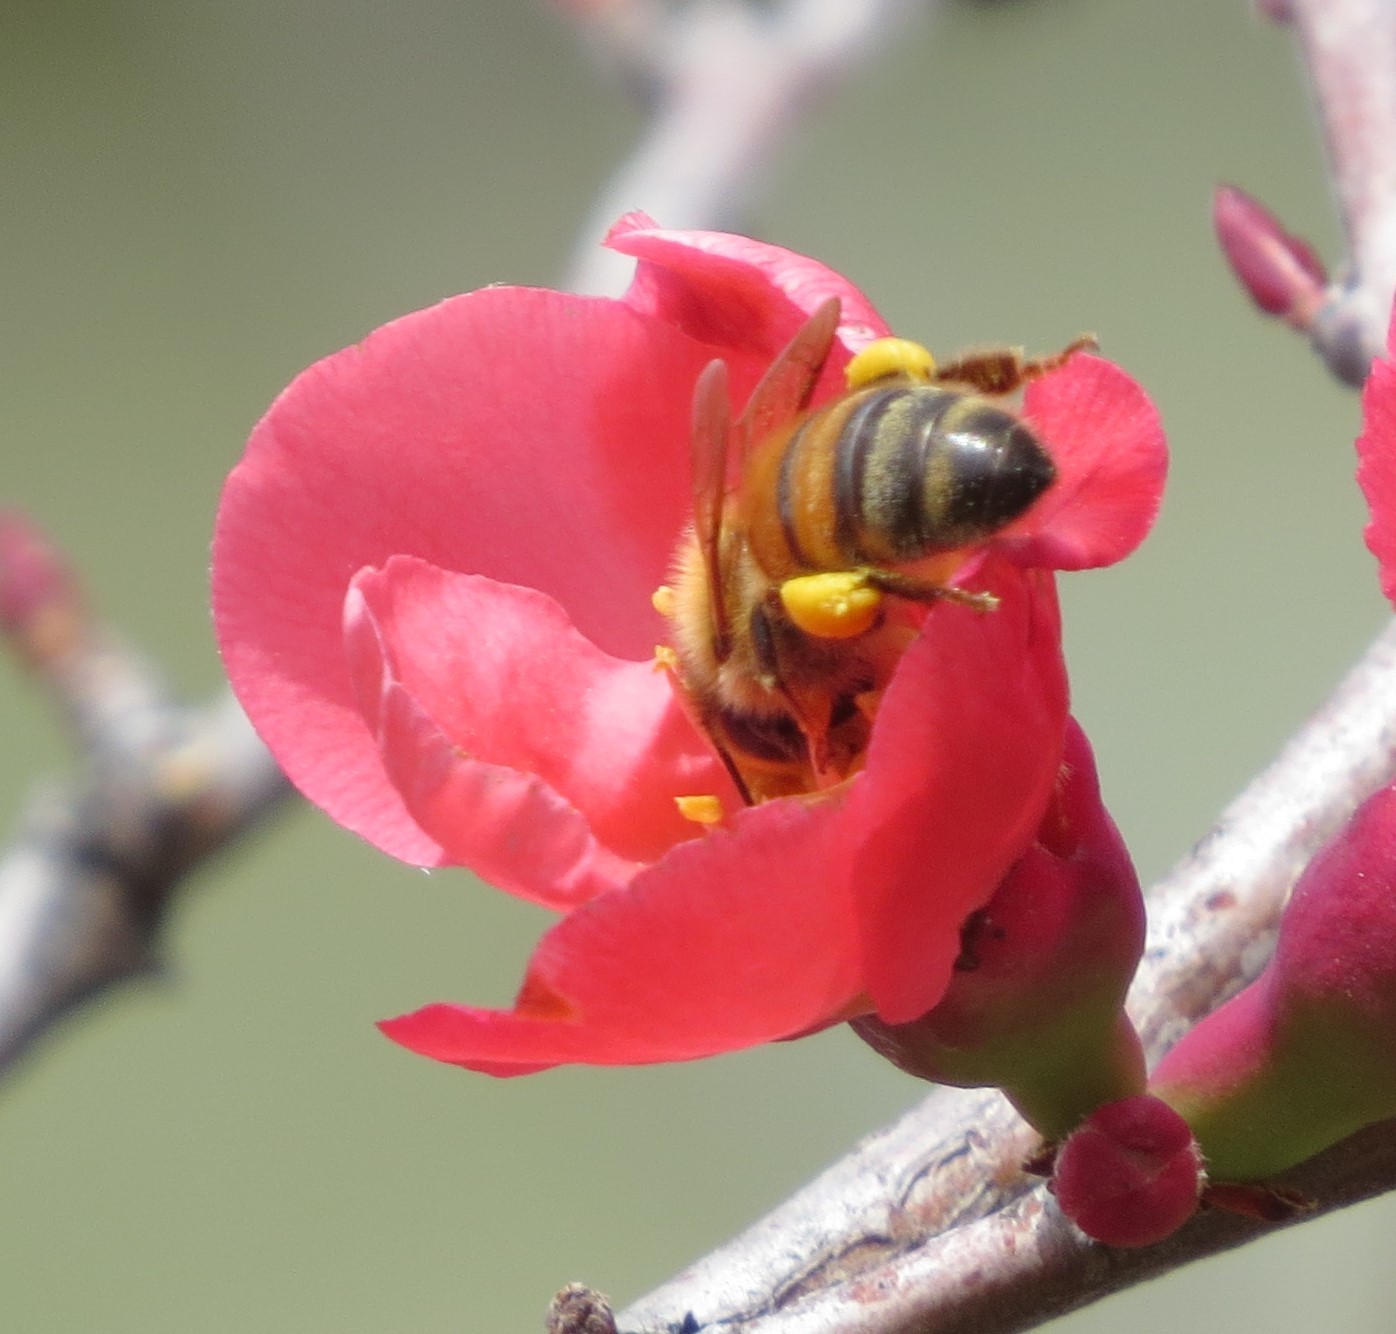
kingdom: Animalia
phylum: Arthropoda
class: Insecta
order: Hymenoptera
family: Apidae
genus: Apis
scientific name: Apis mellifera
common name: Honey bee
